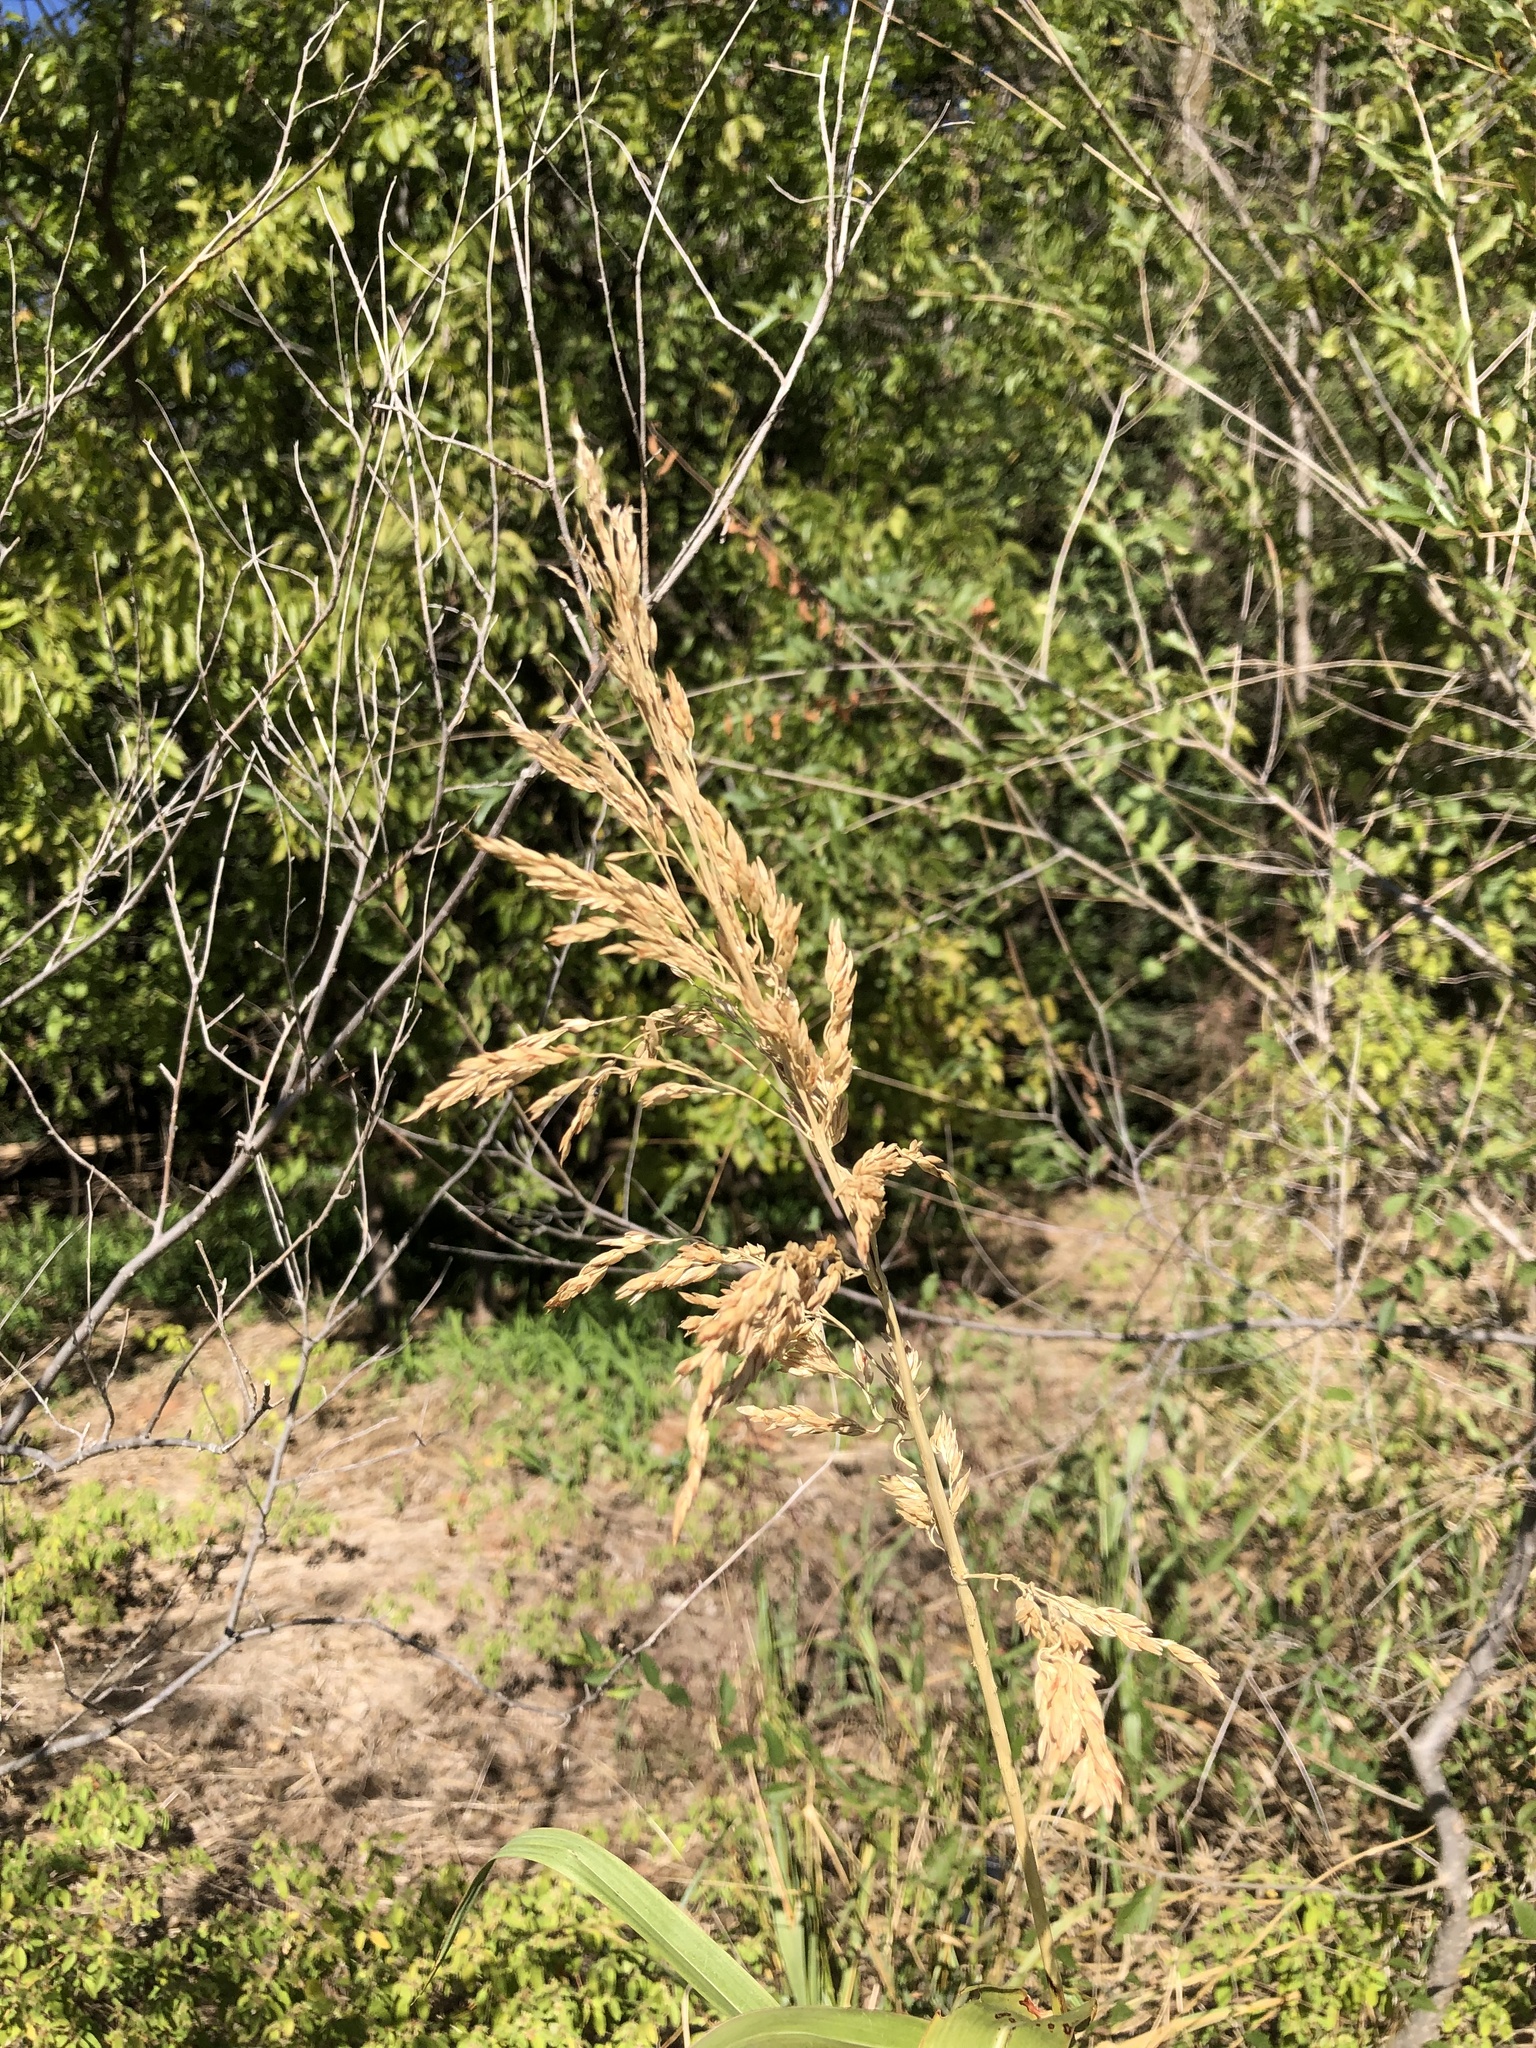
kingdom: Plantae
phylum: Tracheophyta
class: Liliopsida
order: Poales
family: Poaceae
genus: Sorghum
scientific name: Sorghum halepense
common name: Johnson-grass
